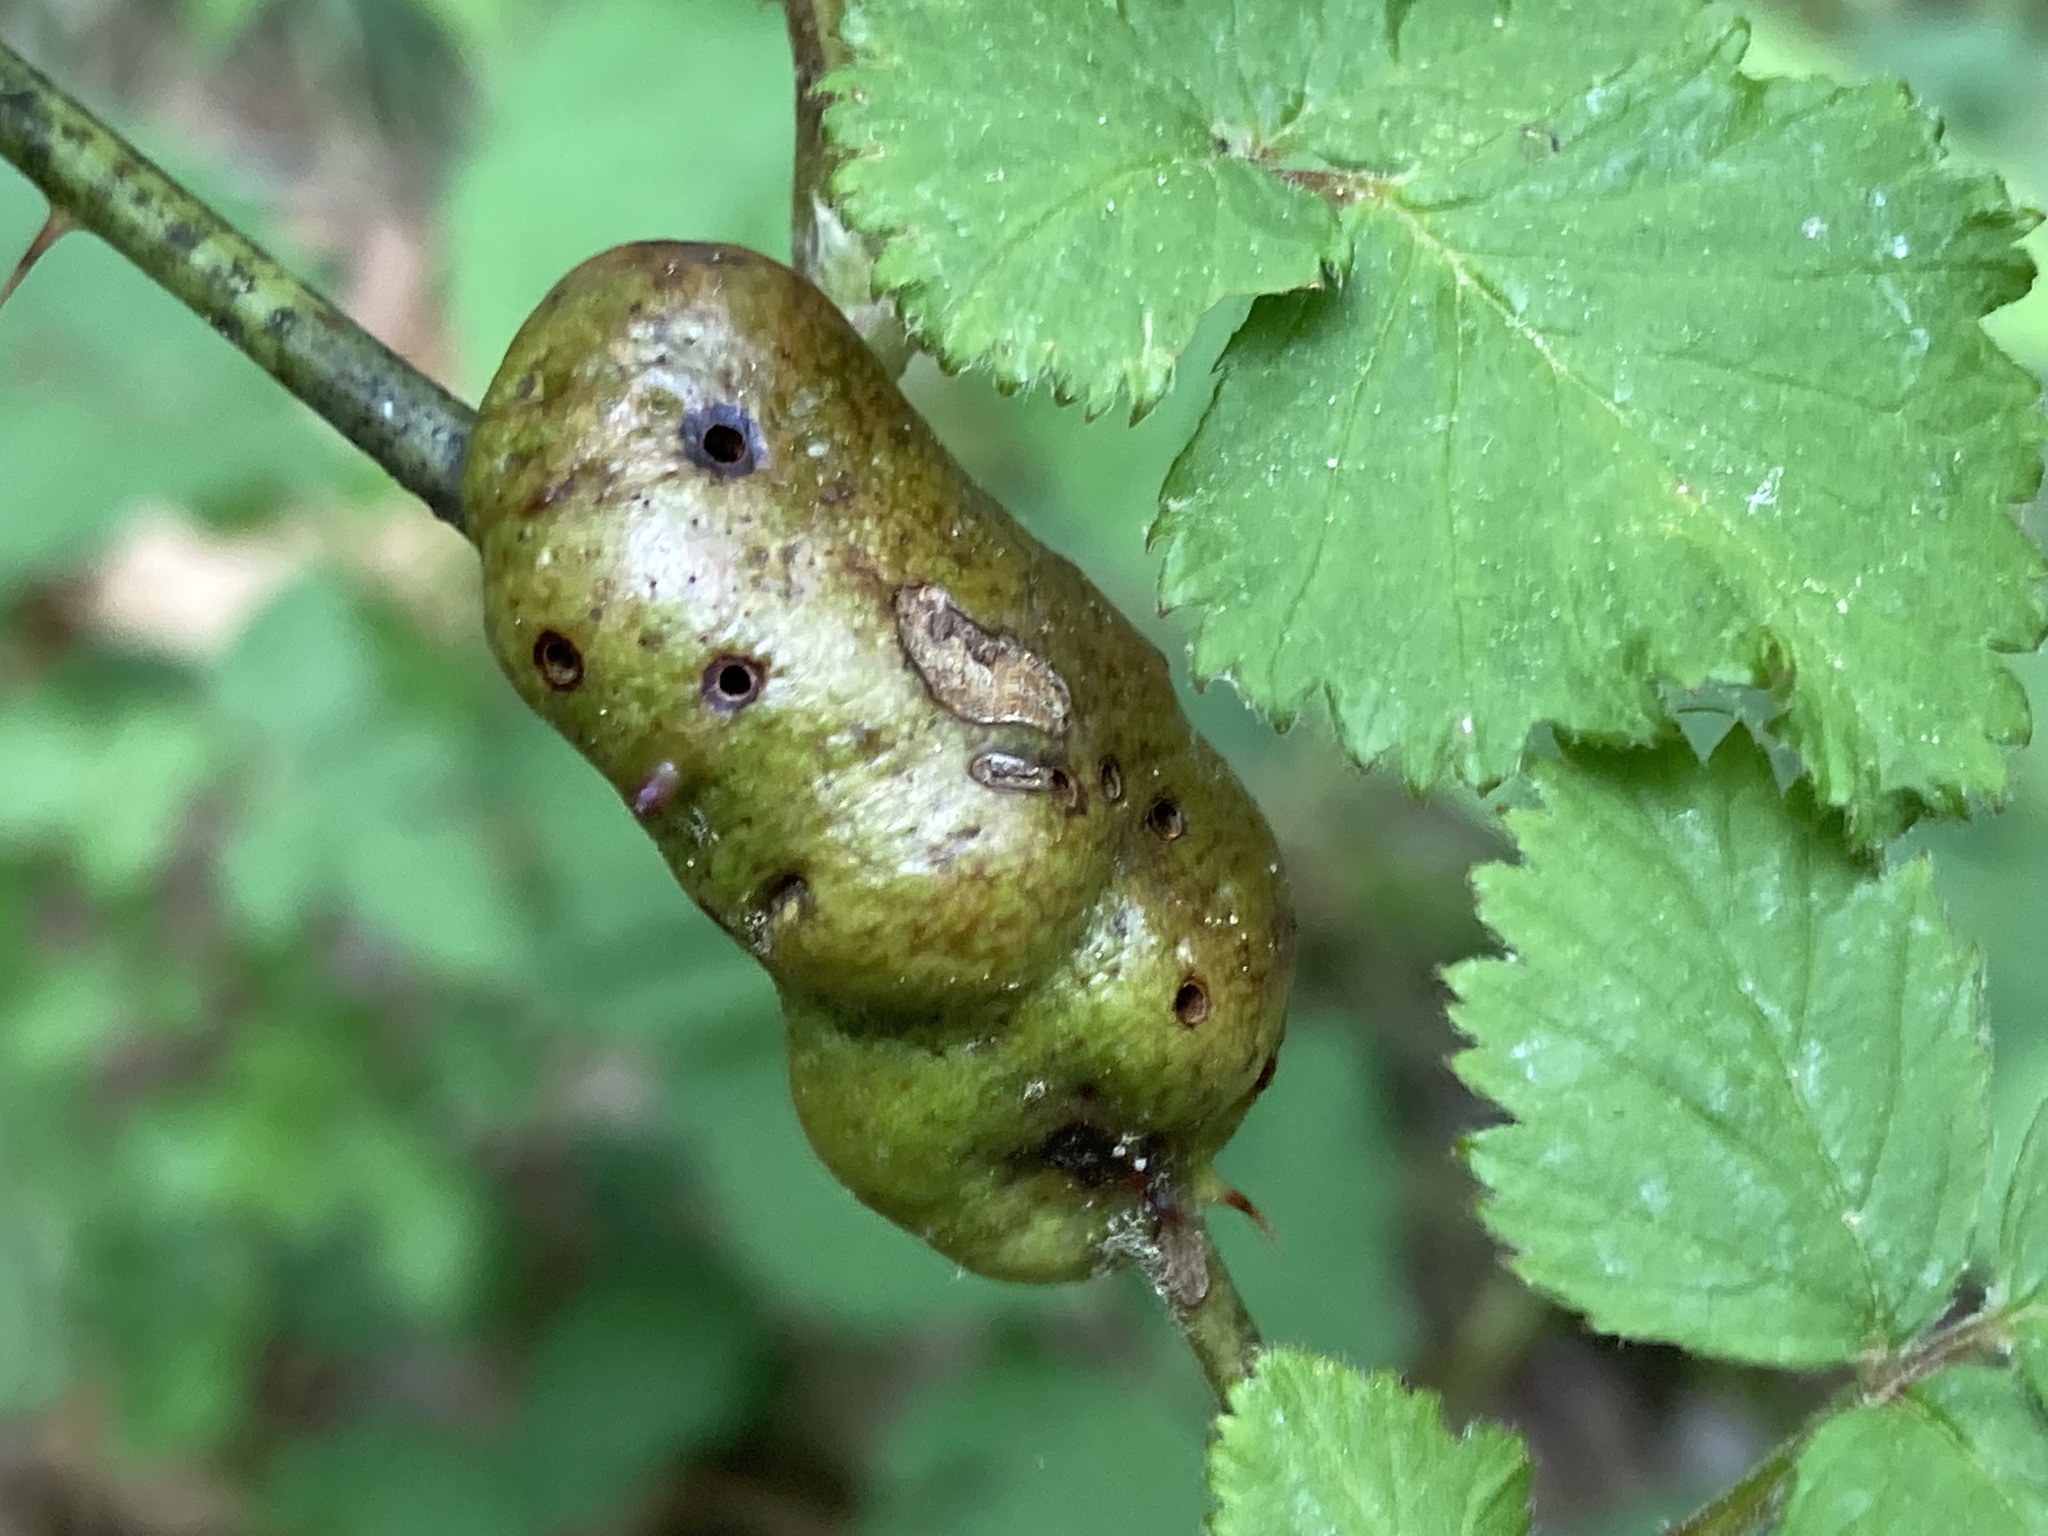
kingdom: Animalia
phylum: Arthropoda
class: Insecta
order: Hymenoptera
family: Cynipidae
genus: Diastrophus
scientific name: Diastrophus
